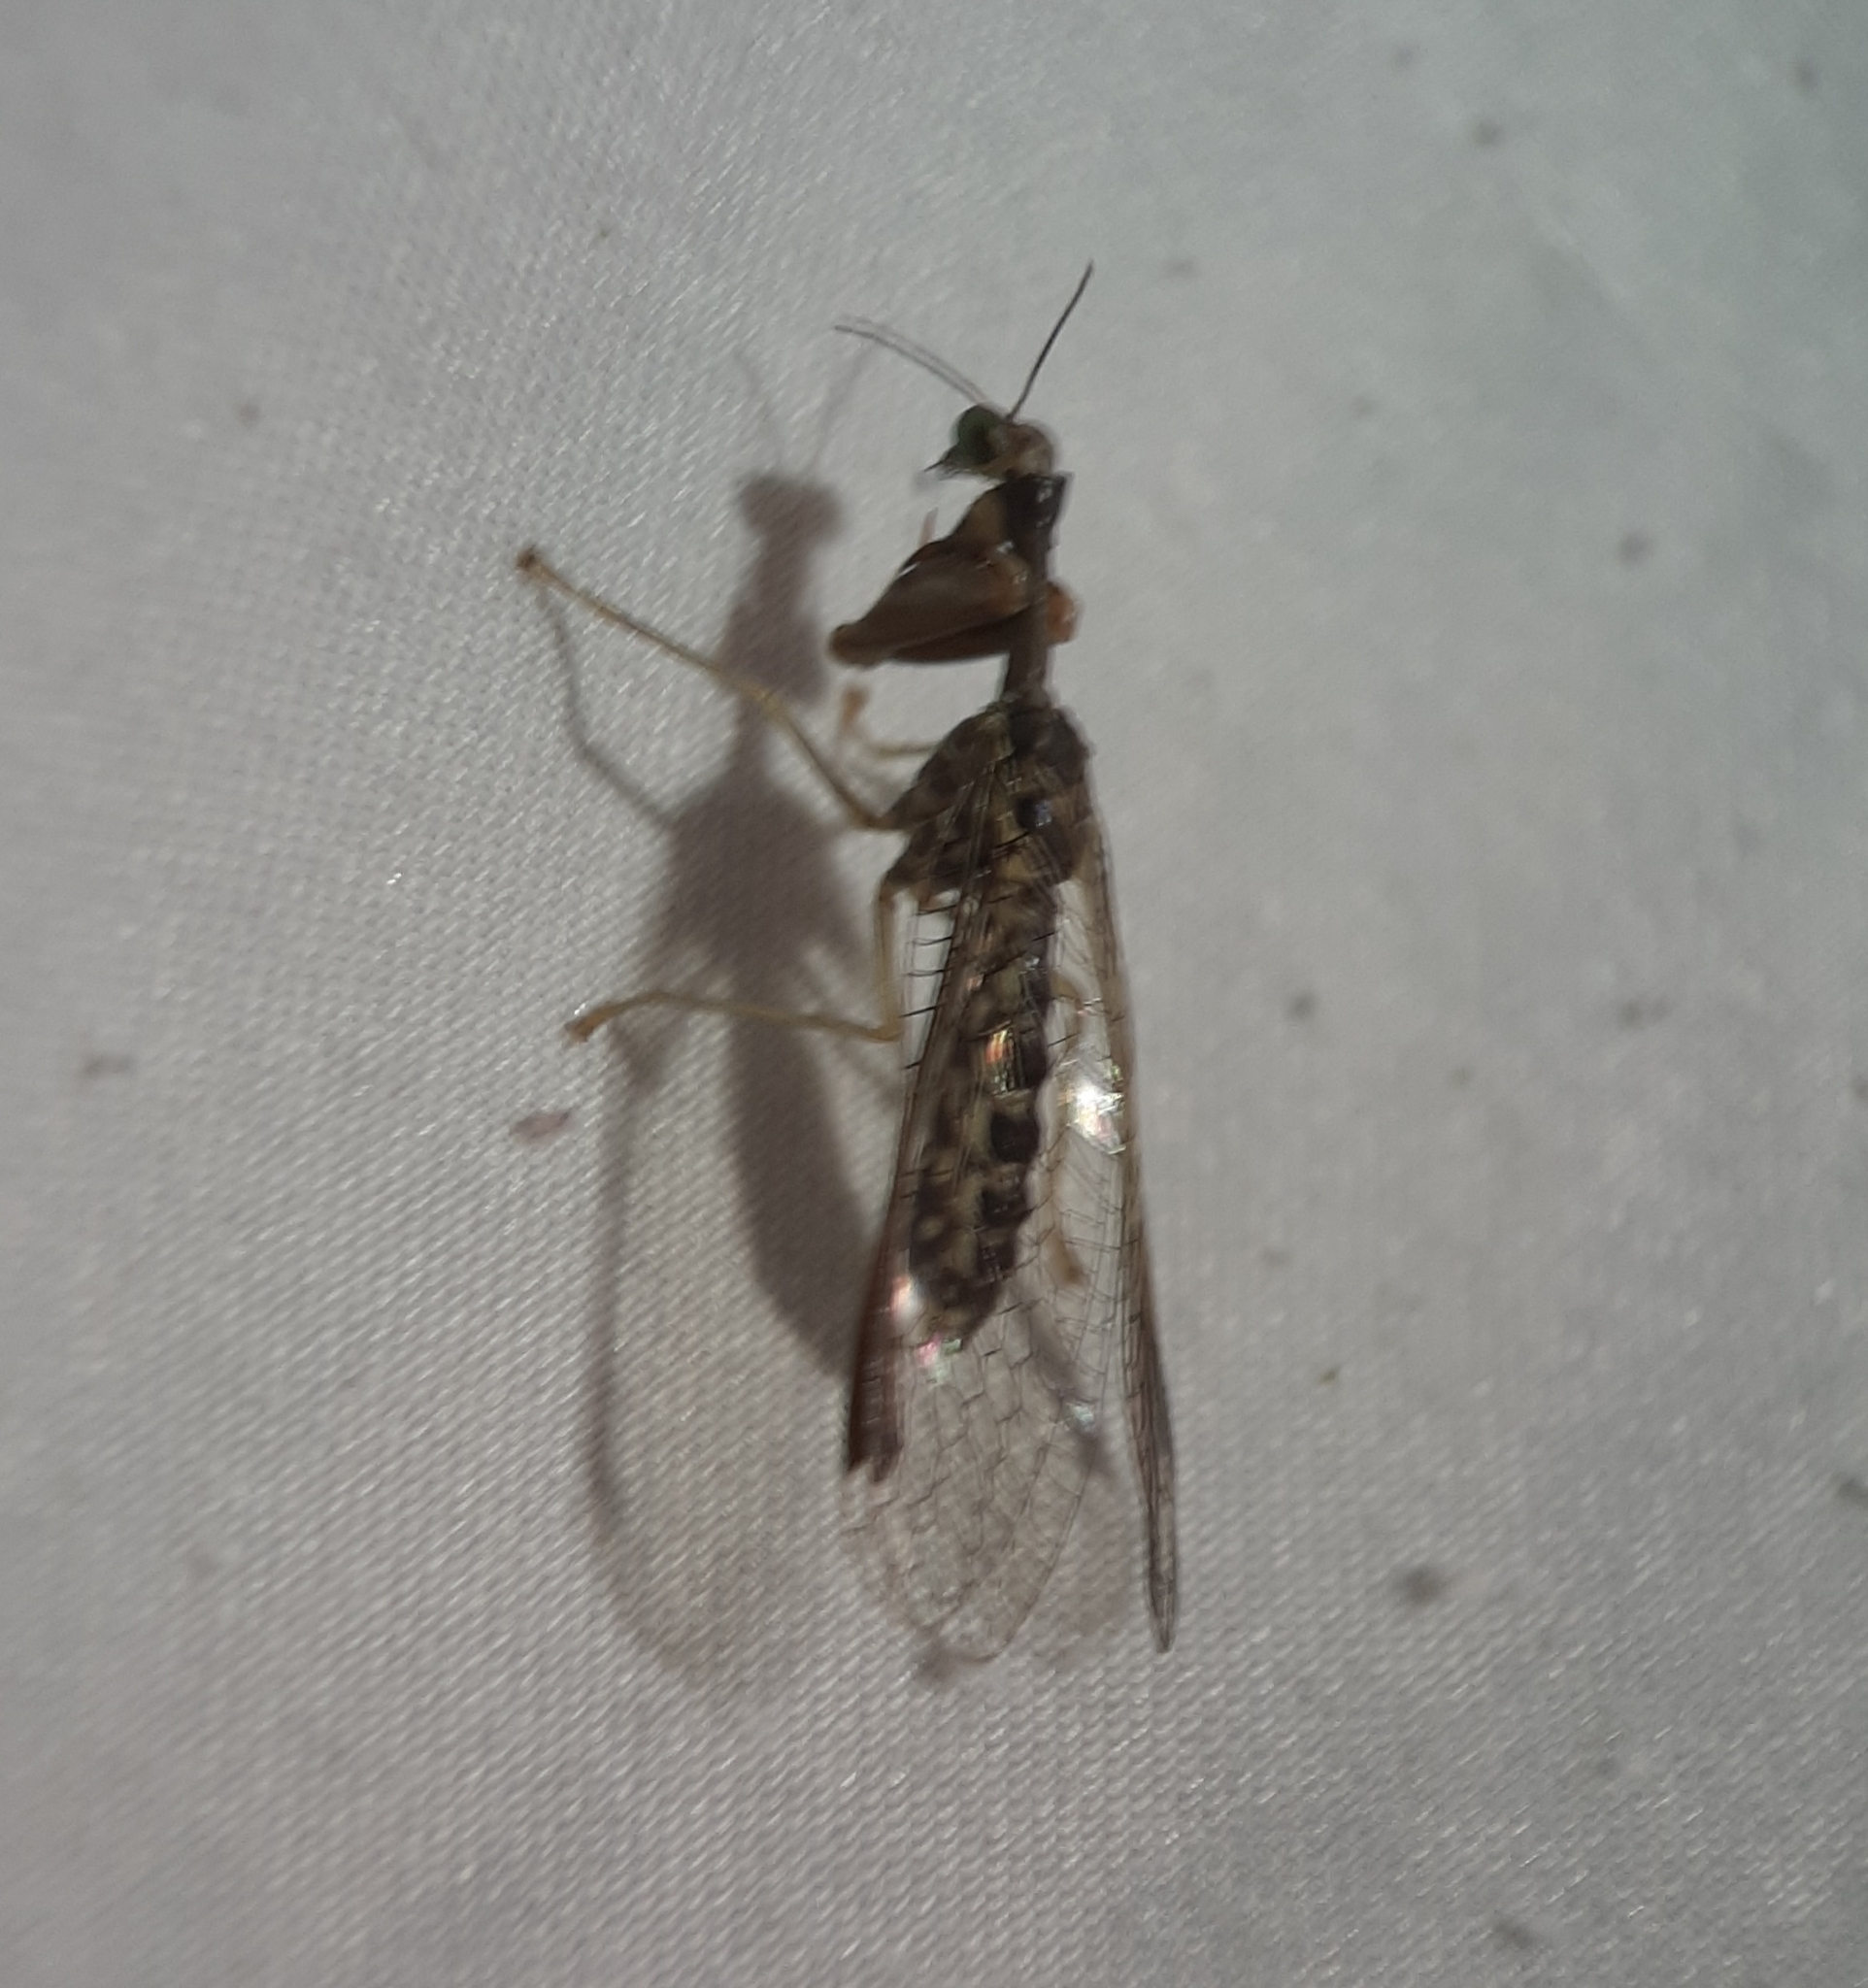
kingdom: Animalia
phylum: Arthropoda
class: Insecta
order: Neuroptera
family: Mantispidae
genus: Dicromantispa
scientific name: Dicromantispa sayi
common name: Say's mantidfly
